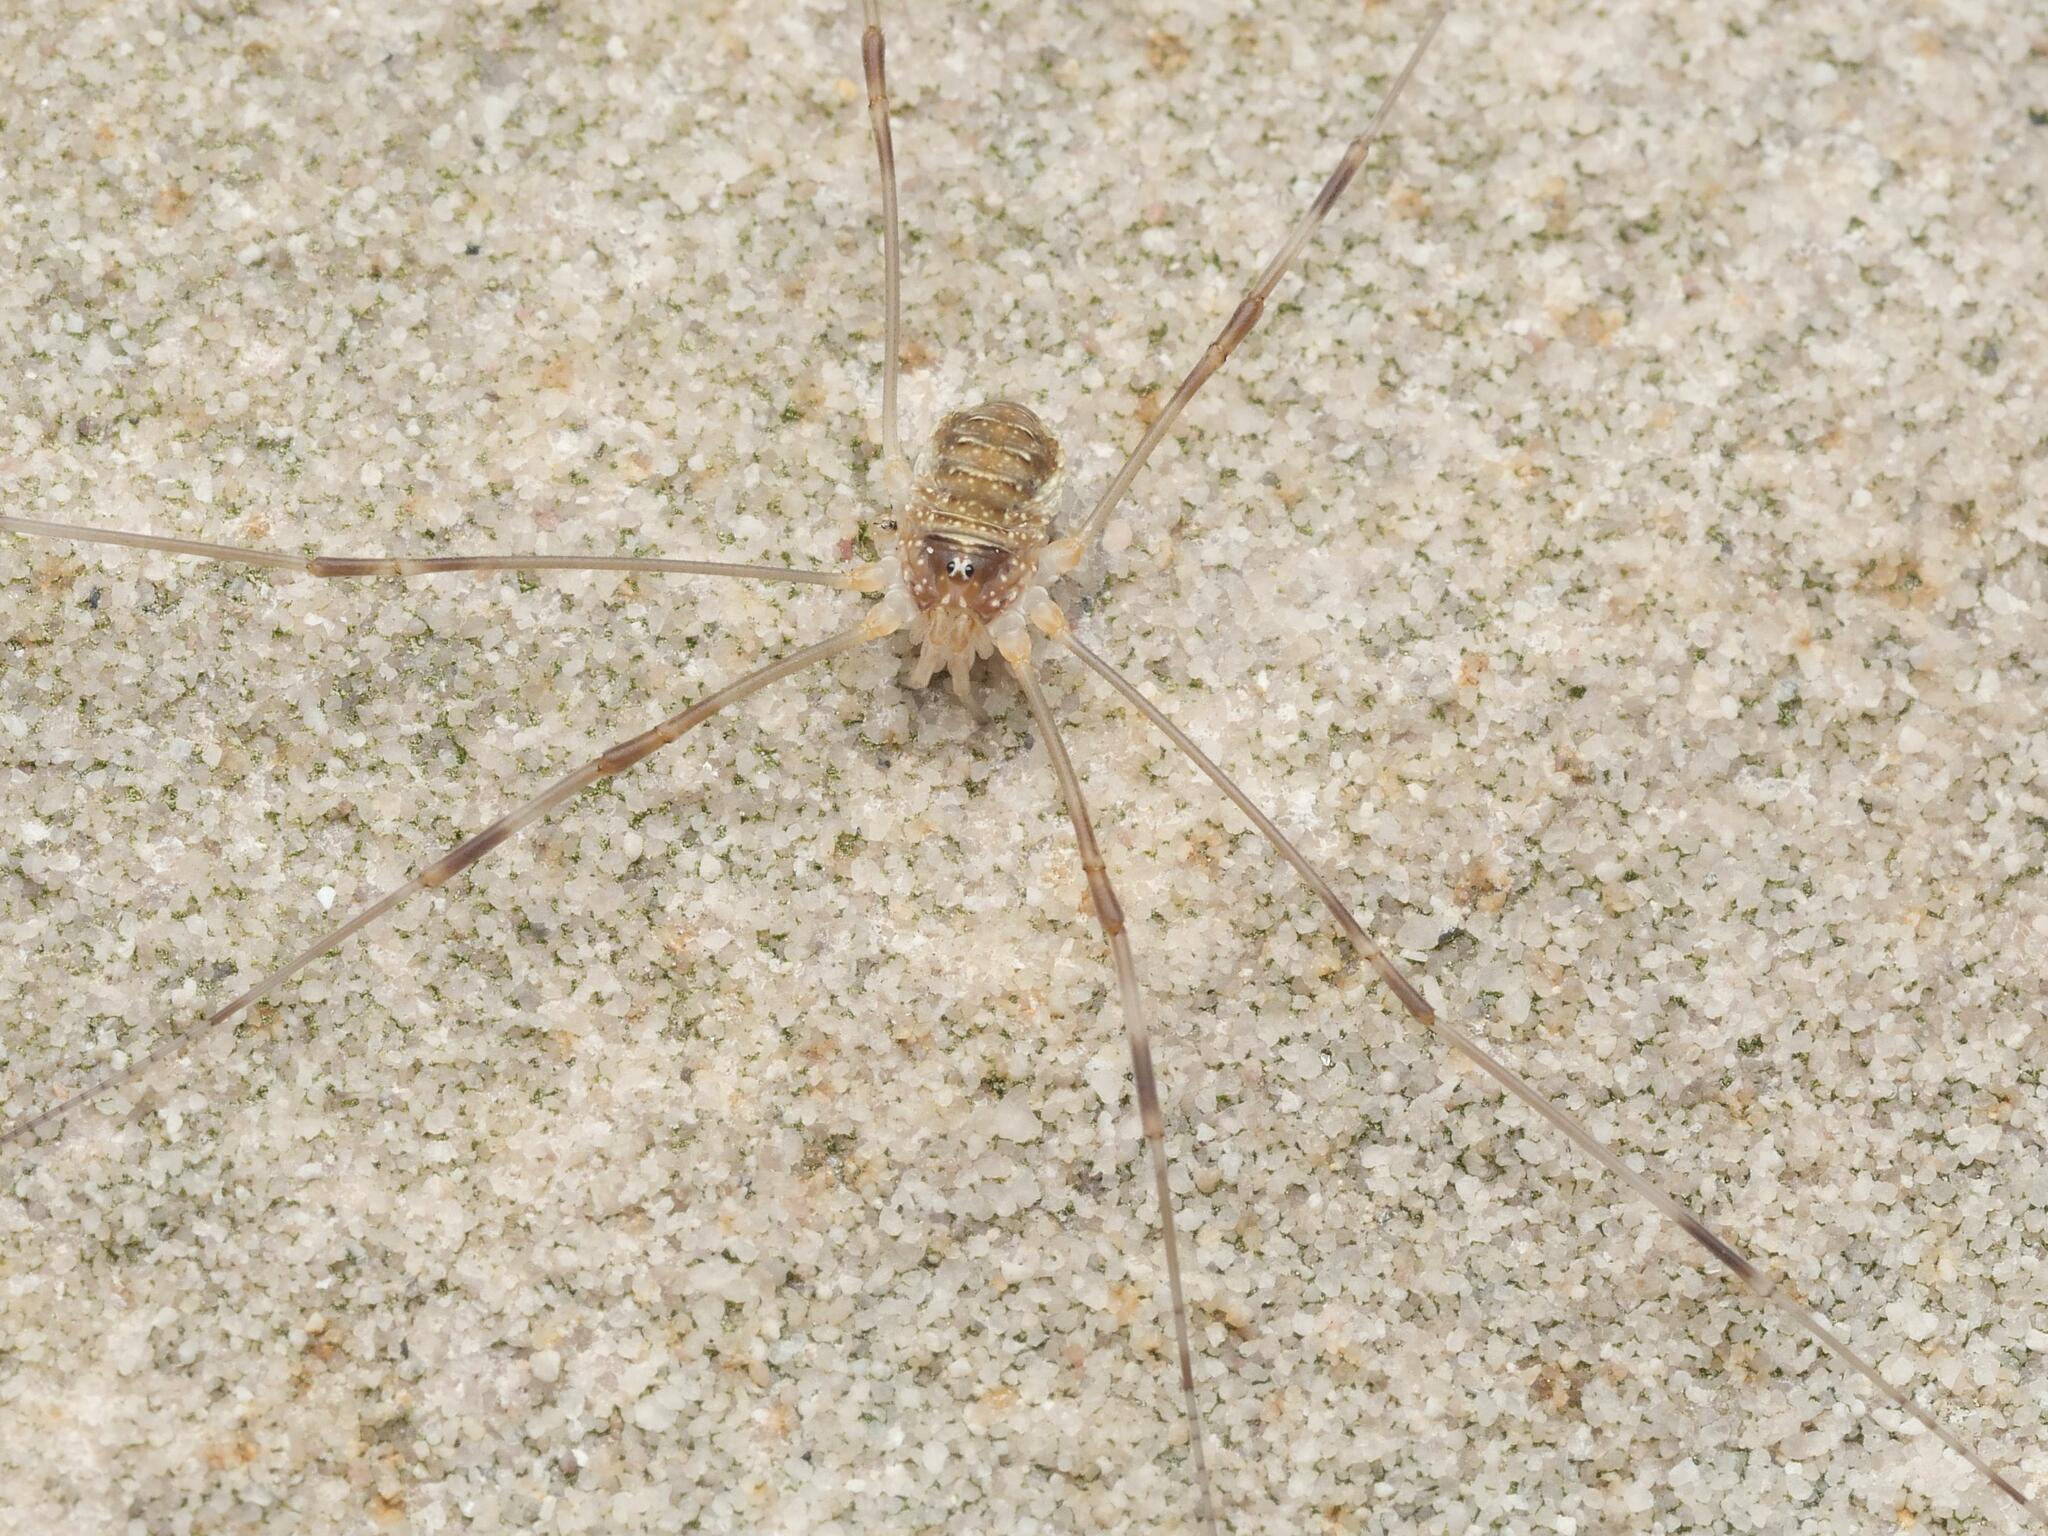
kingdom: Animalia
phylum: Arthropoda
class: Arachnida
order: Opiliones
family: Phalangiidae
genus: Opilio
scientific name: Opilio canestrinii
